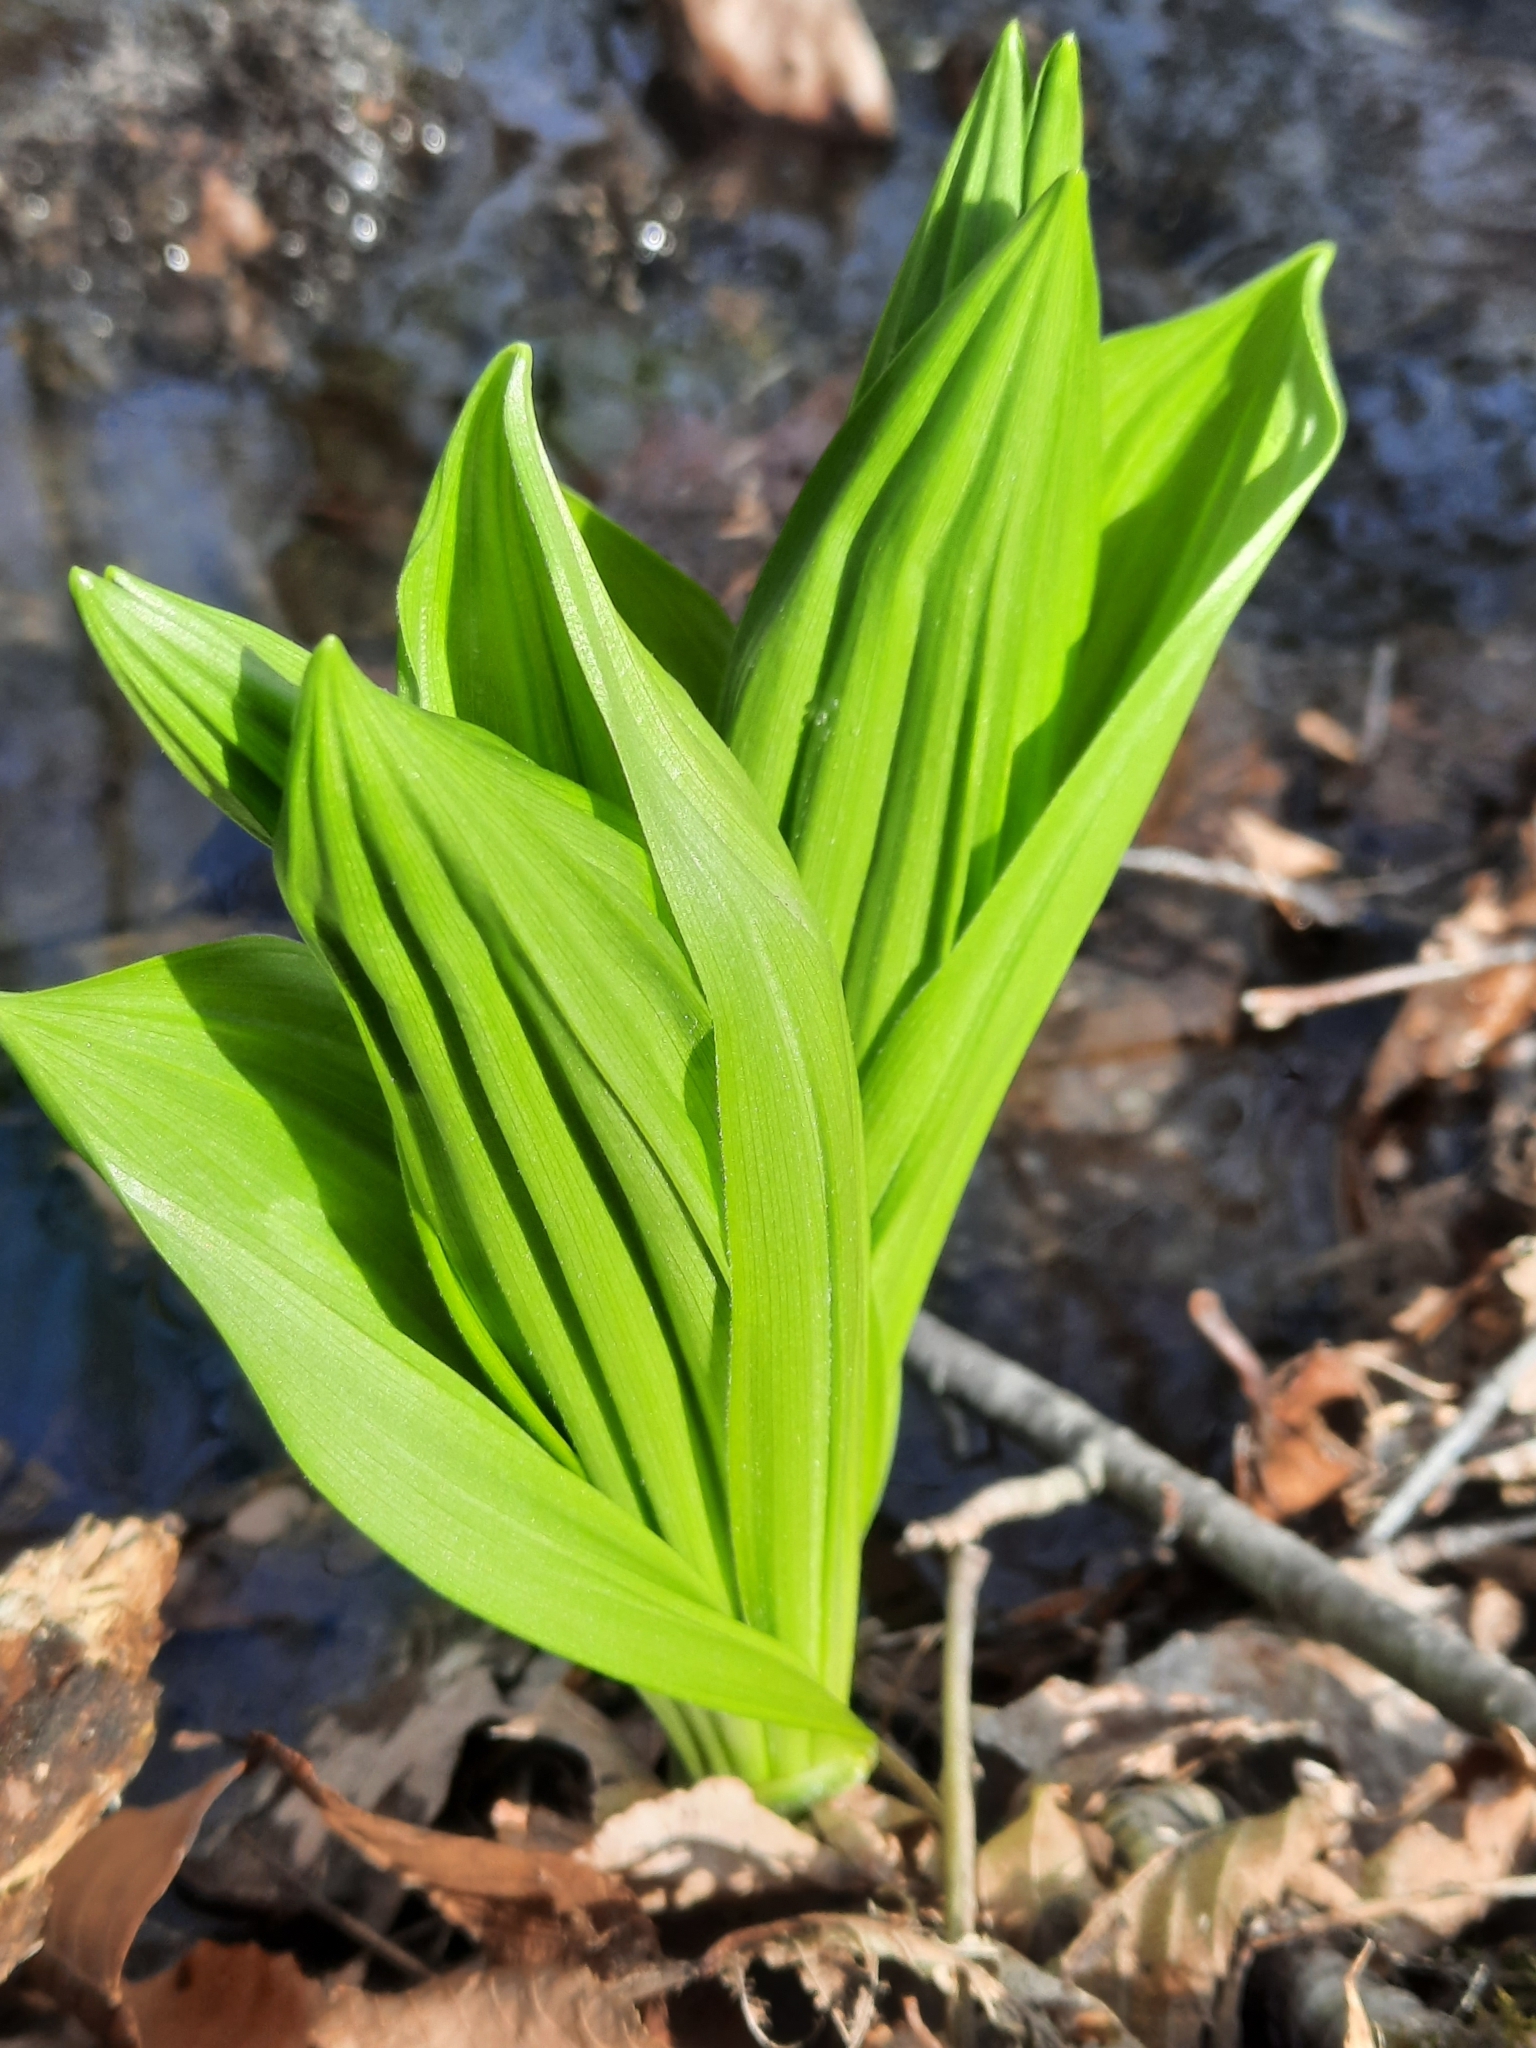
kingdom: Plantae
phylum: Tracheophyta
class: Liliopsida
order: Liliales
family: Melanthiaceae
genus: Veratrum
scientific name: Veratrum viride
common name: American false hellebore
